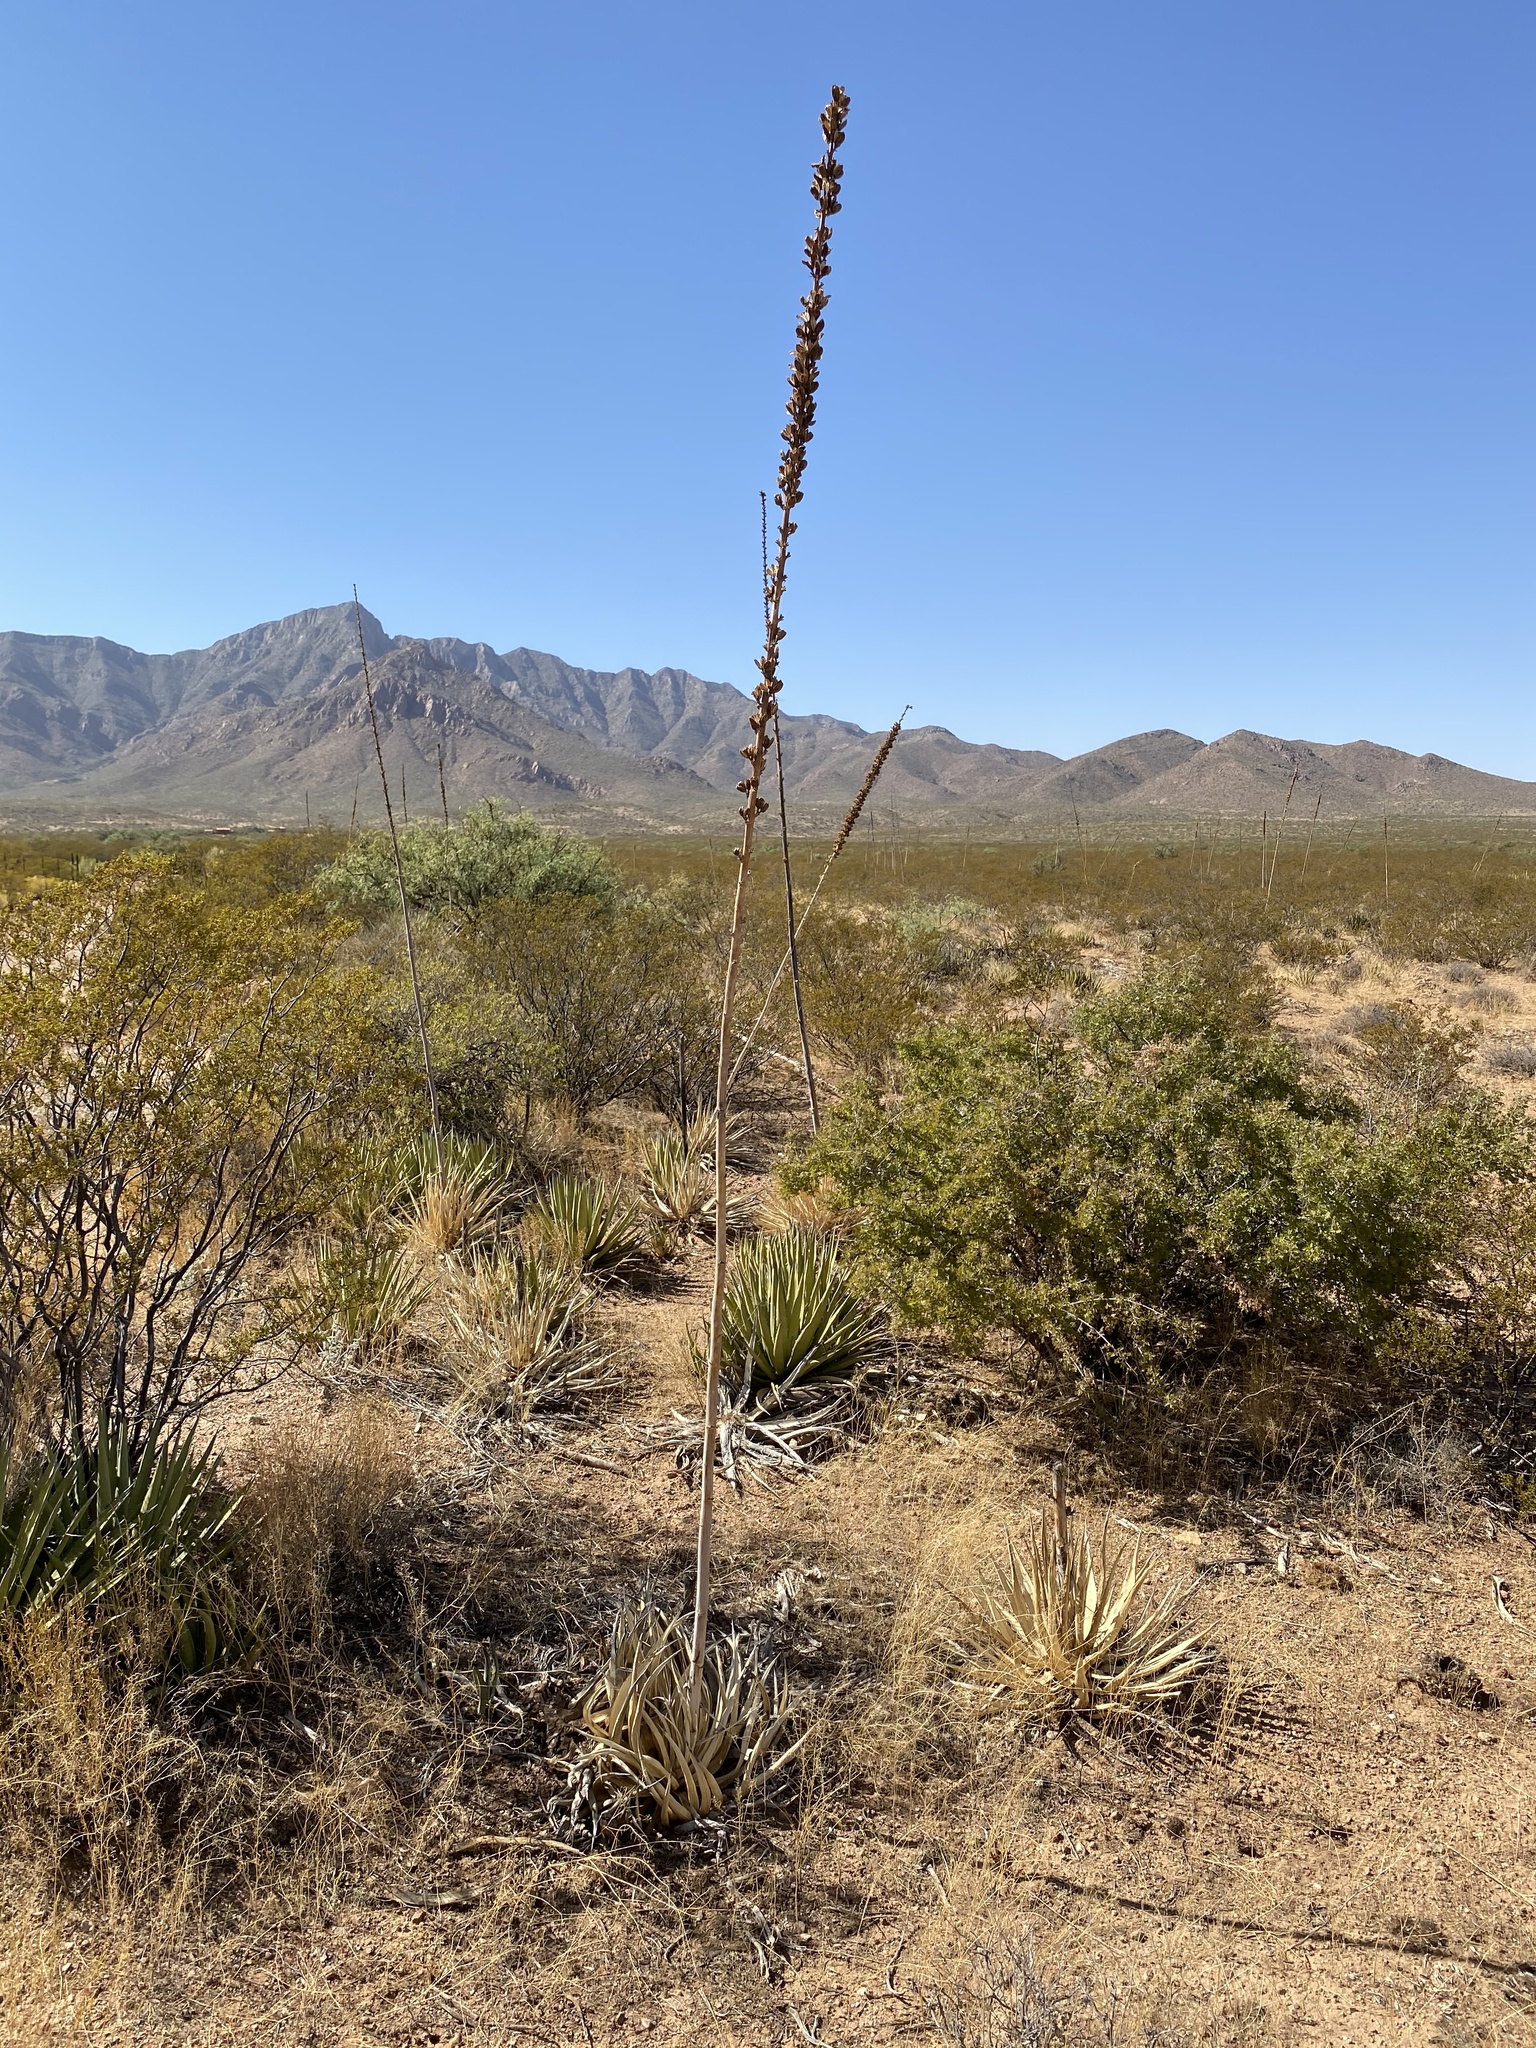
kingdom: Plantae
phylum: Tracheophyta
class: Liliopsida
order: Asparagales
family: Asparagaceae
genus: Agave
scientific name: Agave lechuguilla
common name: Lecheguilla agave
